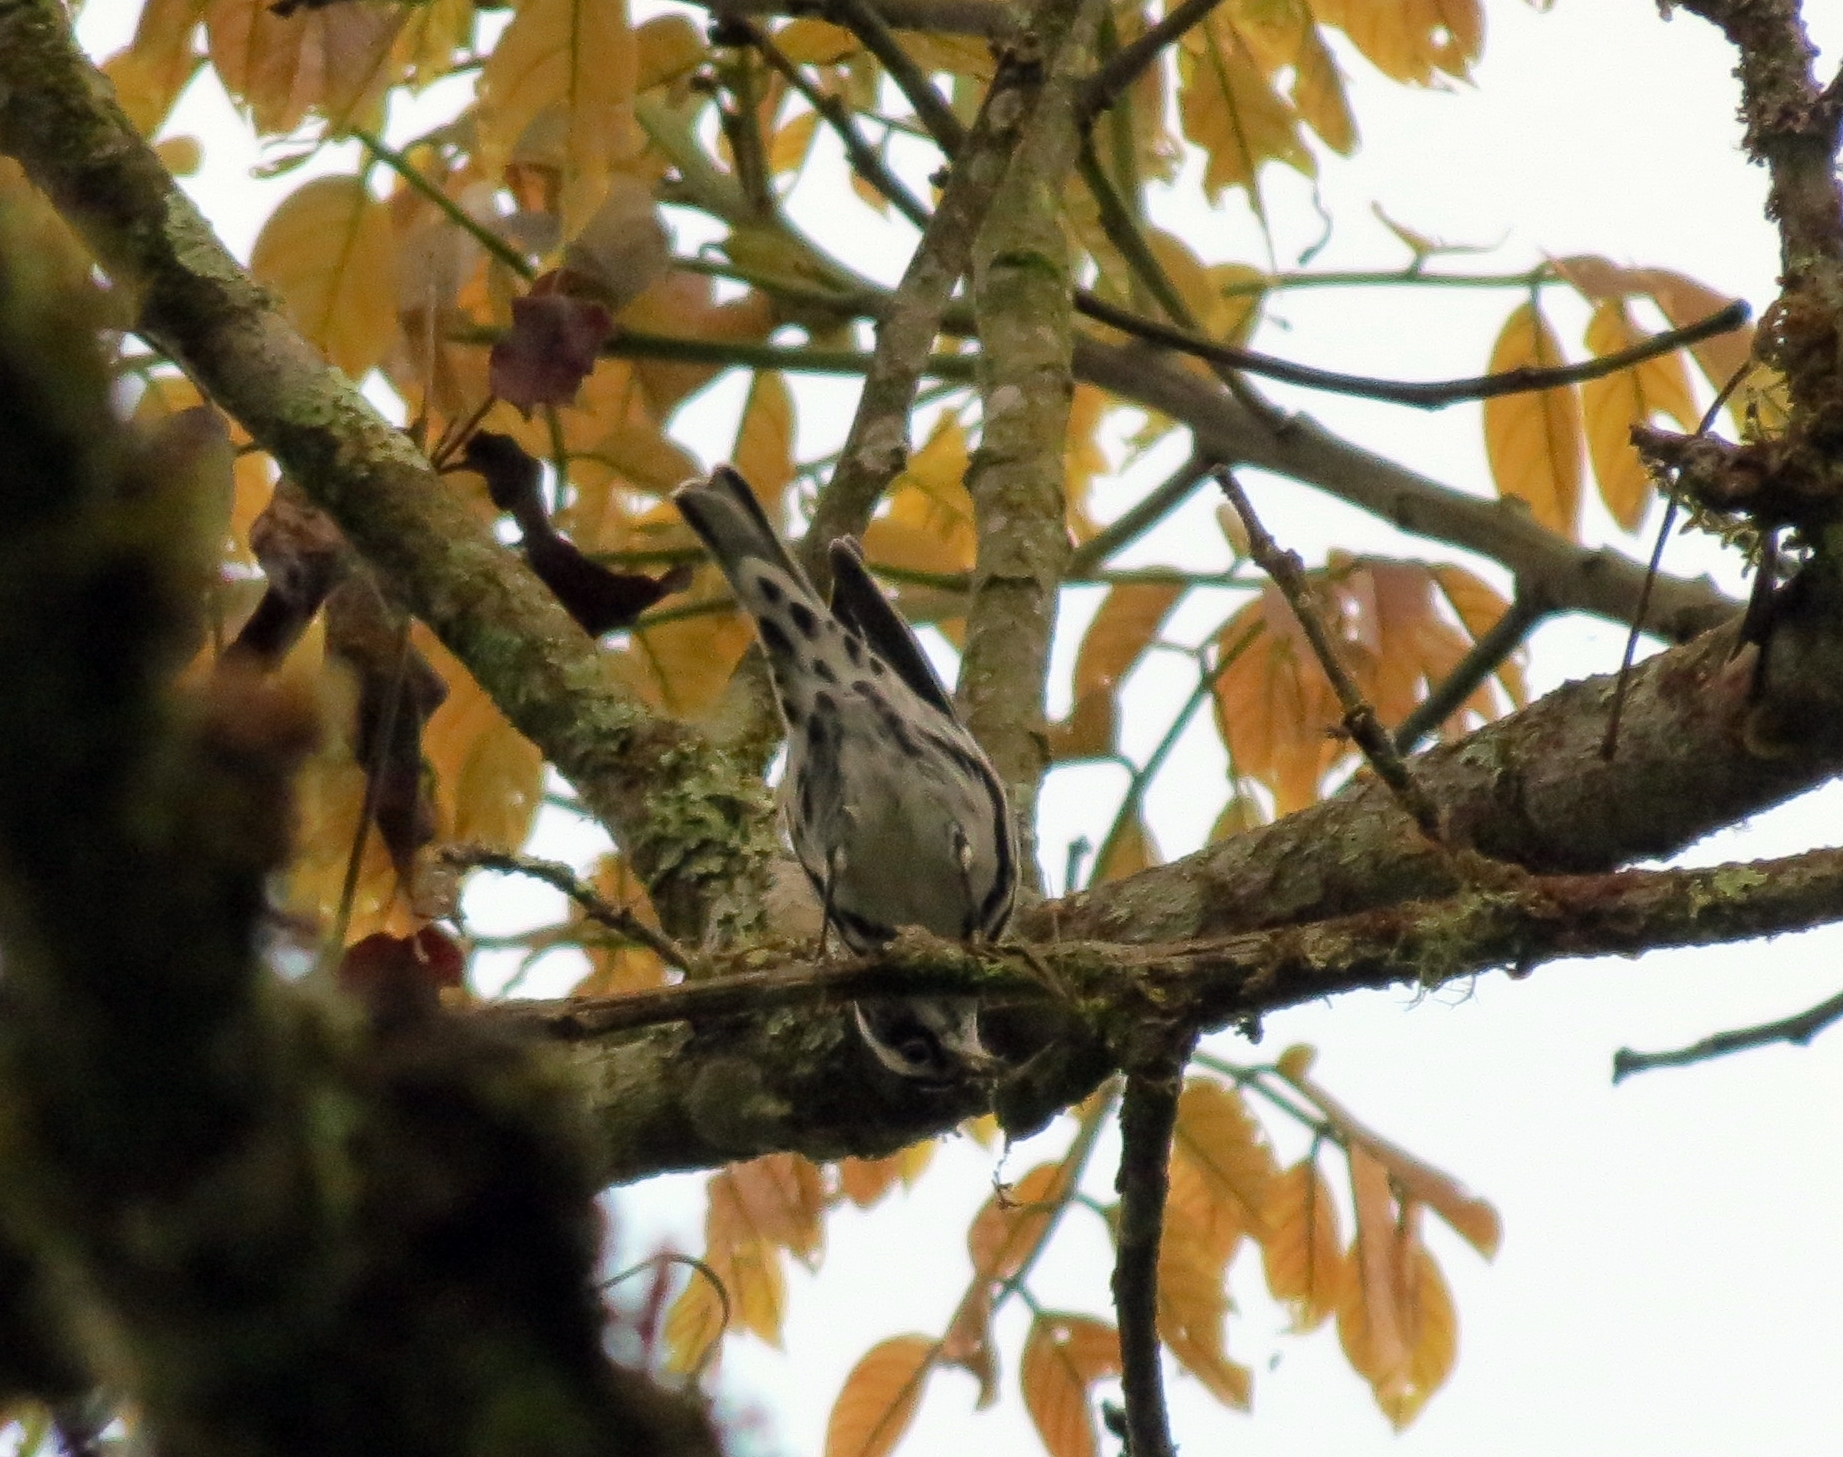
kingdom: Animalia
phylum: Chordata
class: Aves
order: Passeriformes
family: Parulidae
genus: Mniotilta
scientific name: Mniotilta varia
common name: Black-and-white warbler
